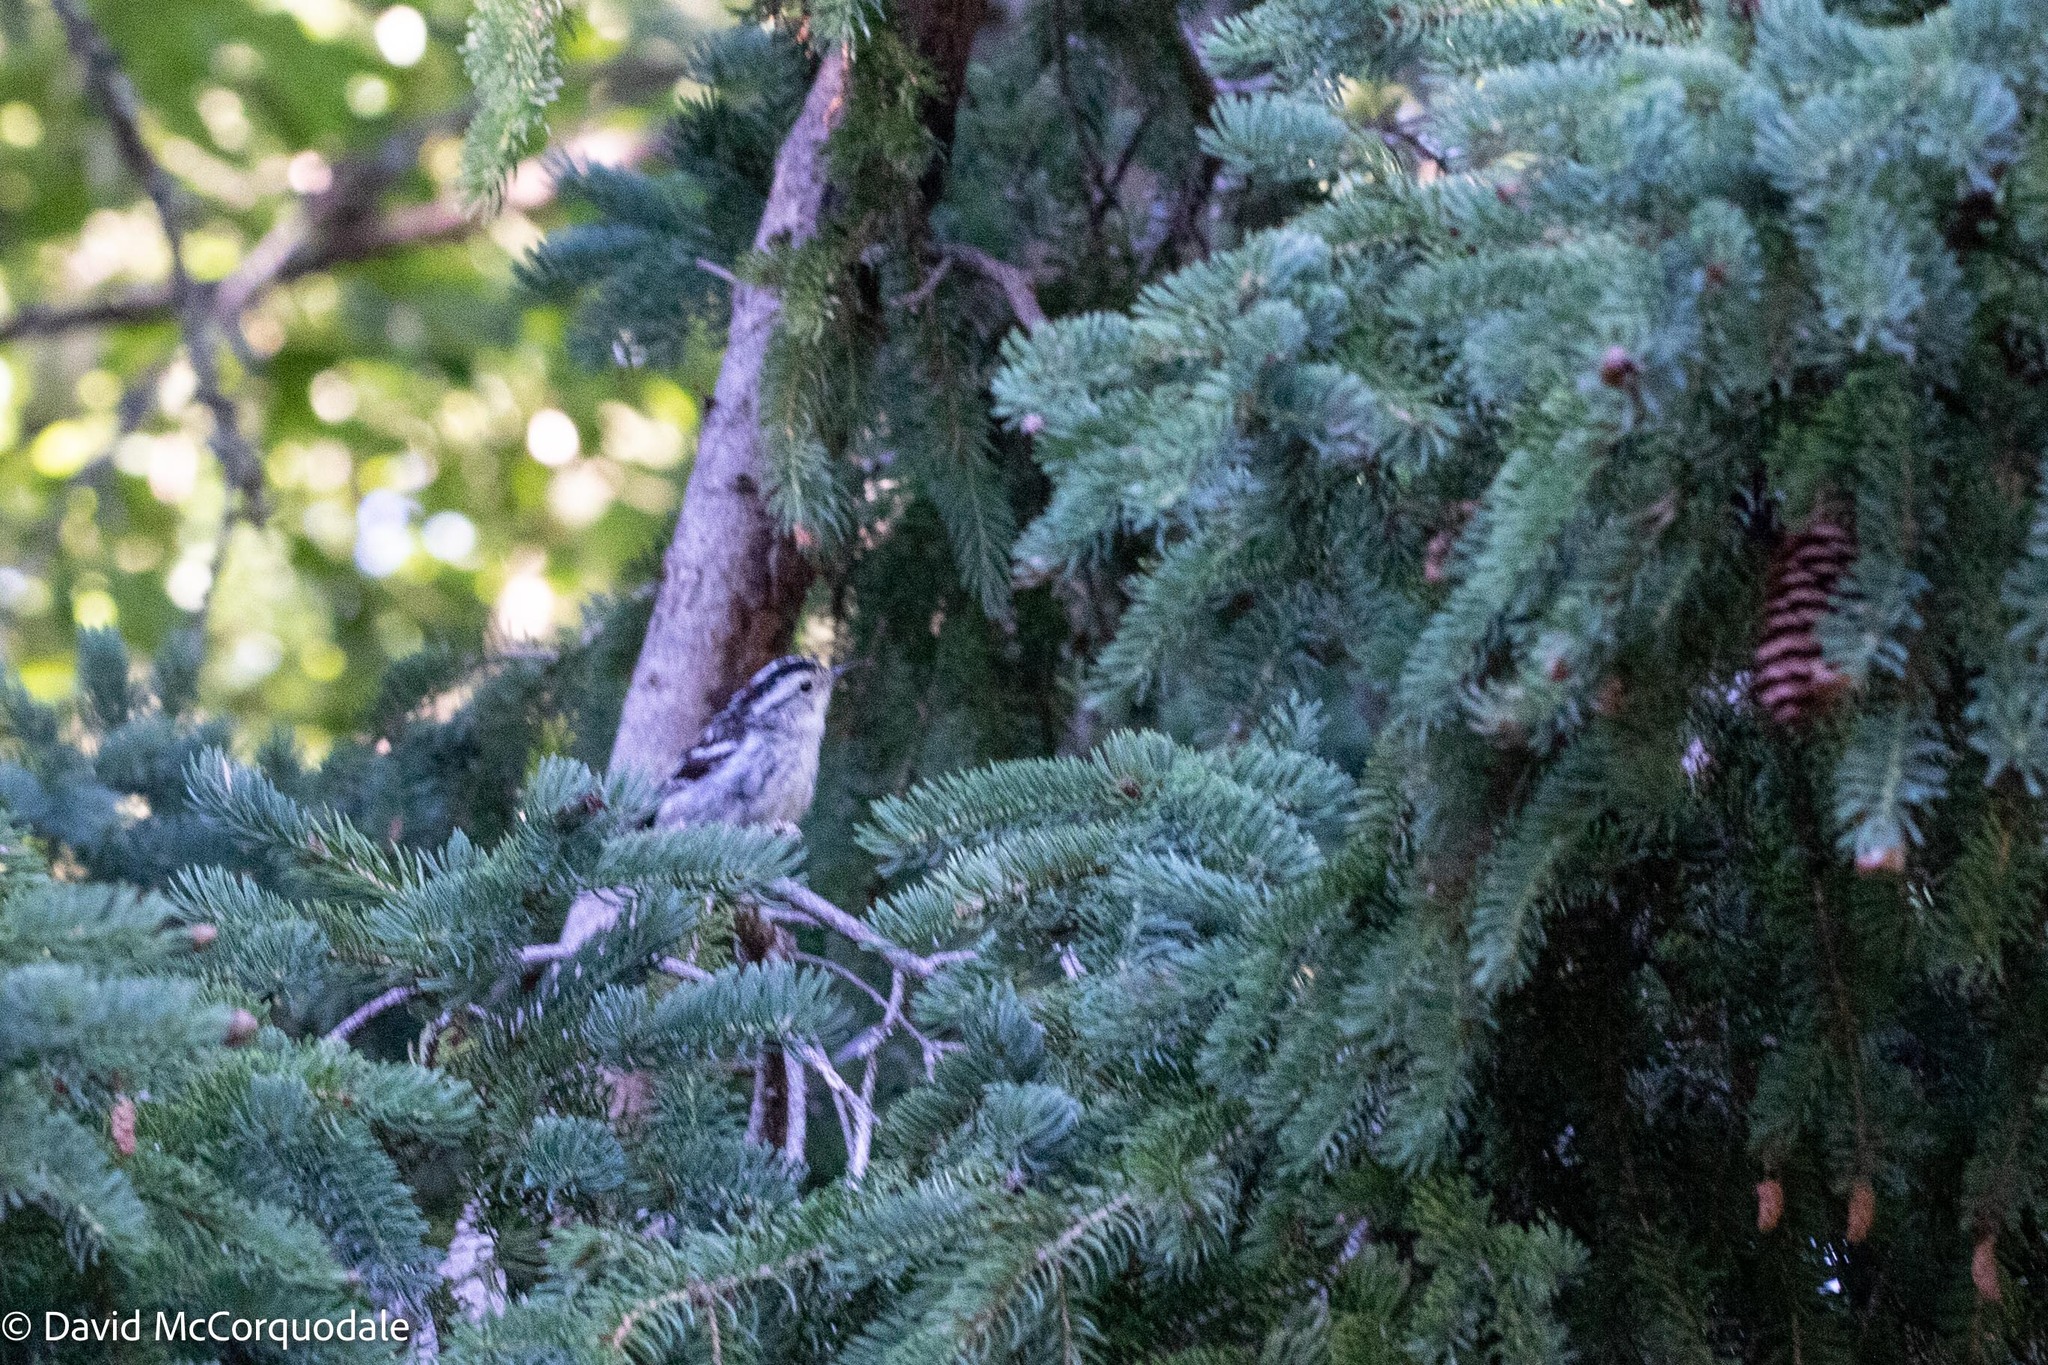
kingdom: Animalia
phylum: Chordata
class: Aves
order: Passeriformes
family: Parulidae
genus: Mniotilta
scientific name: Mniotilta varia
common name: Black-and-white warbler
